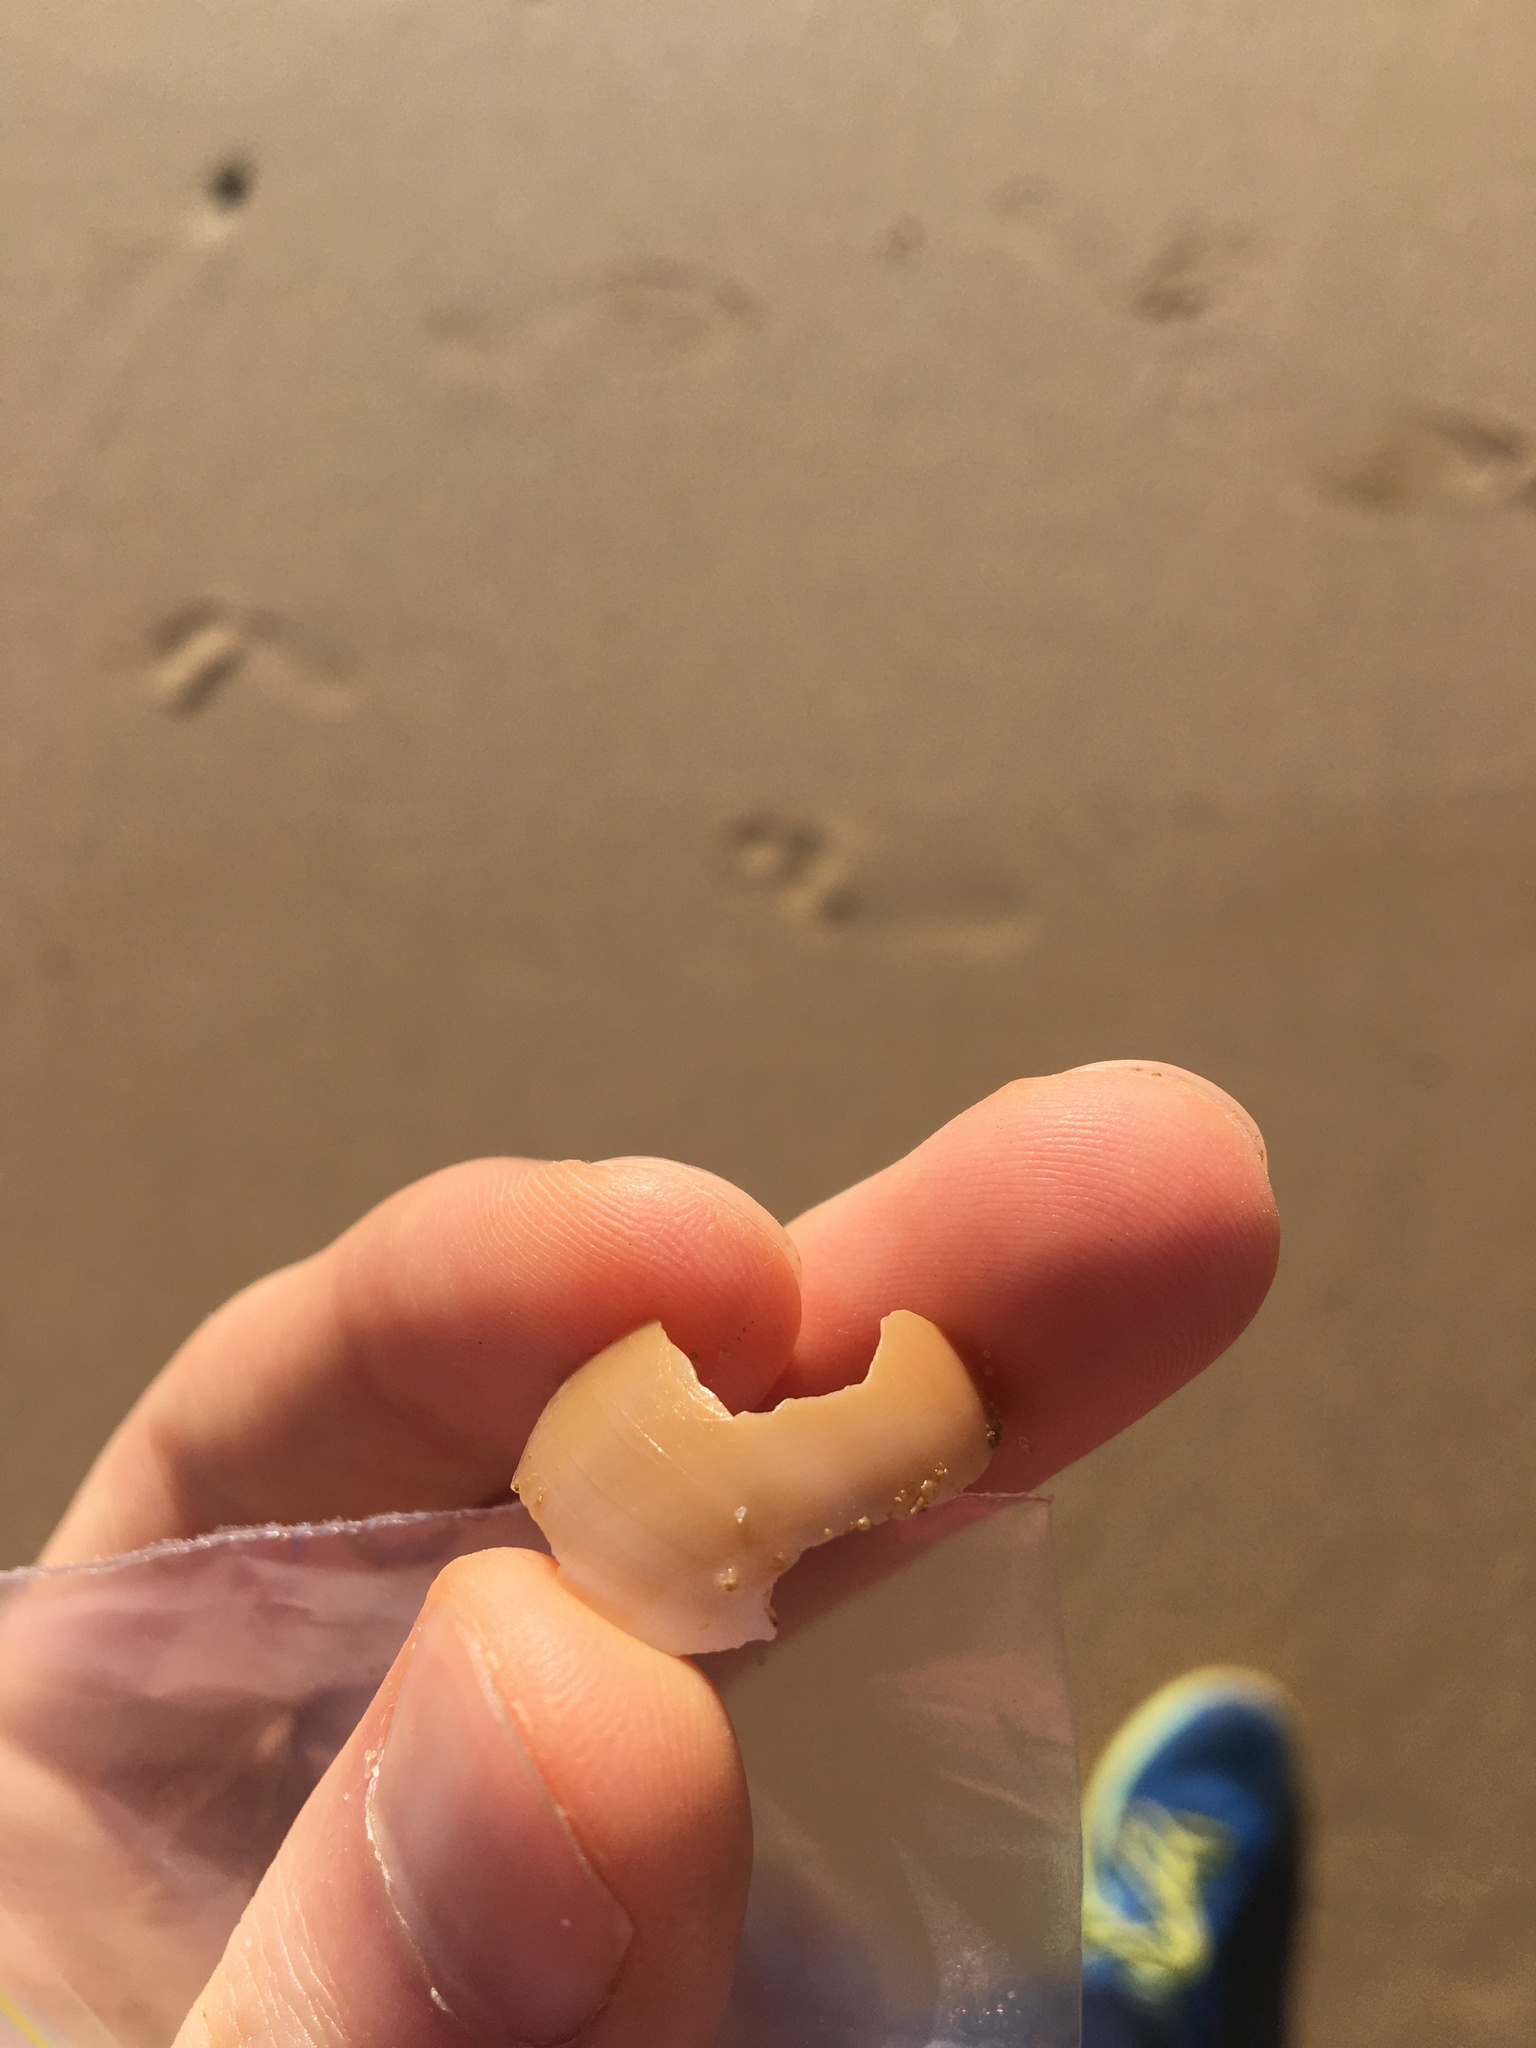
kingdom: Animalia
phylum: Mollusca
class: Gastropoda
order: Littorinimorpha
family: Naticidae
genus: Neverita
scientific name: Neverita didyma
